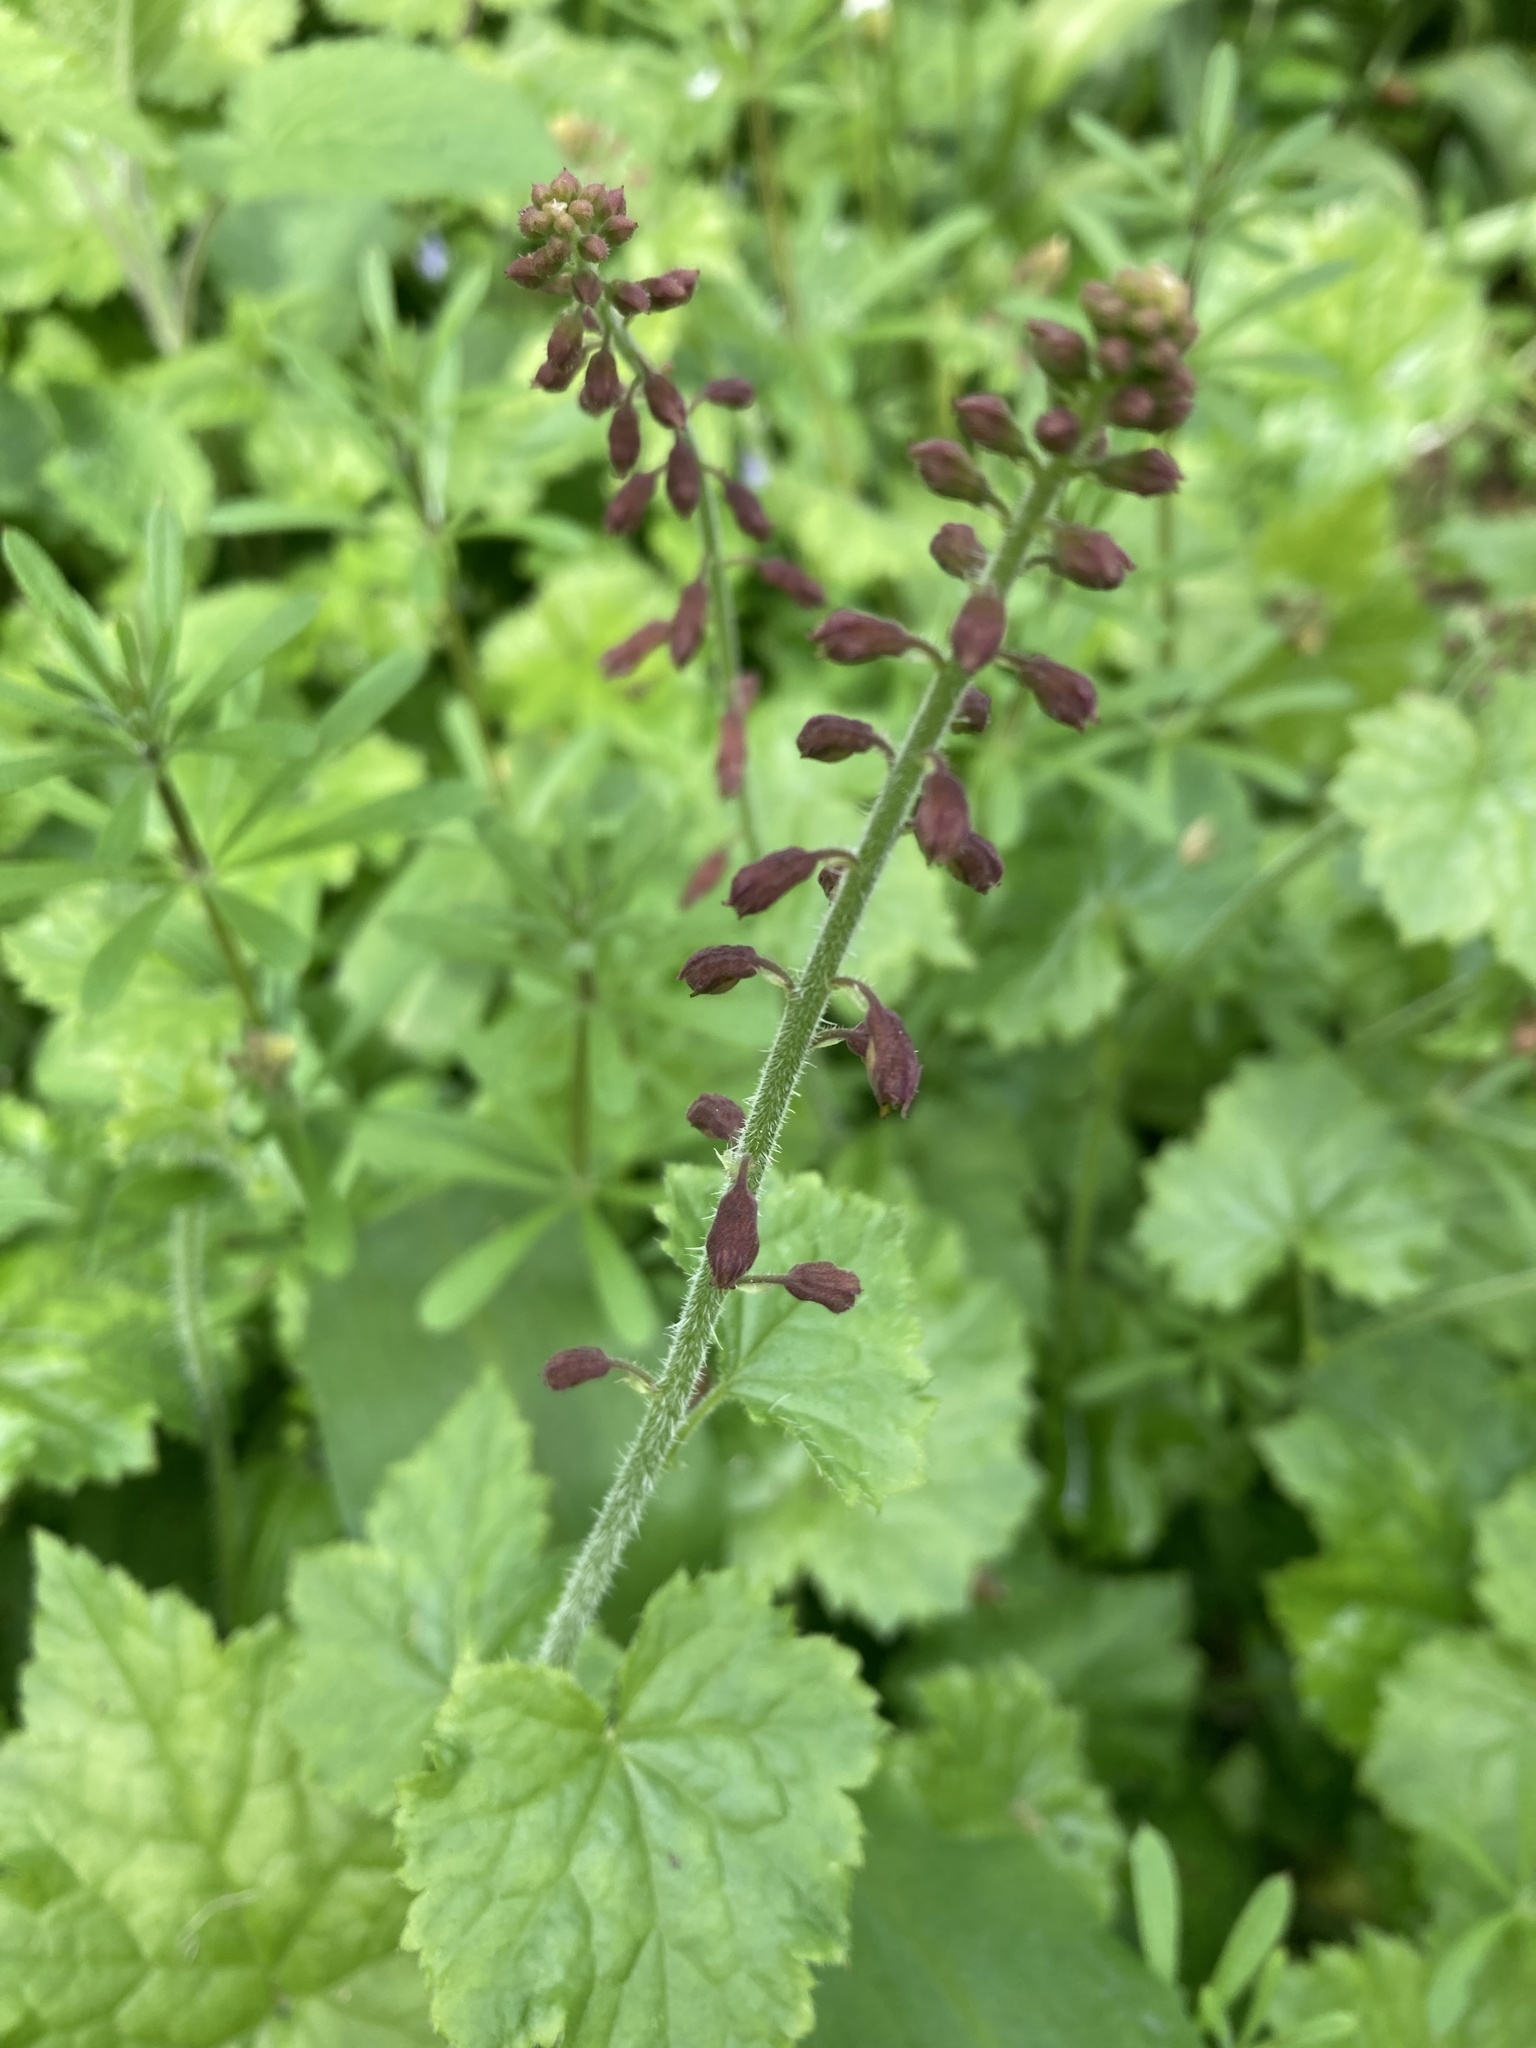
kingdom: Plantae
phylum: Tracheophyta
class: Magnoliopsida
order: Saxifragales
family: Saxifragaceae
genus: Tolmiea
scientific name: Tolmiea menziesii
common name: Pick-a-back-plant
